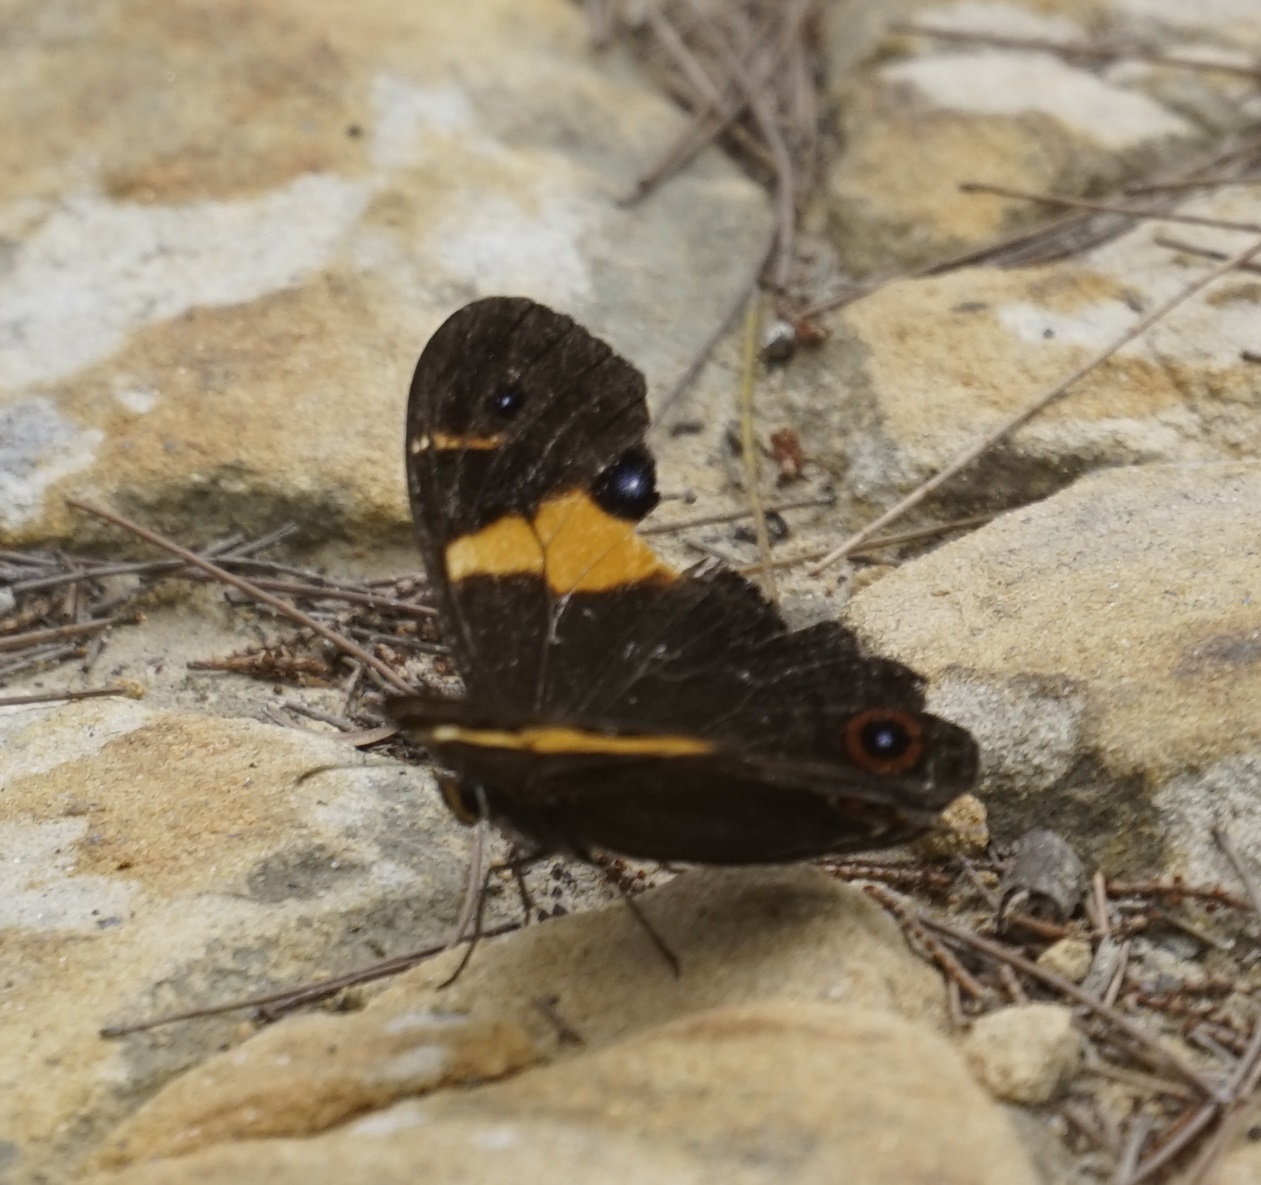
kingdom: Animalia
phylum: Arthropoda
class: Insecta
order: Lepidoptera
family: Nymphalidae
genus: Tisiphone
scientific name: Tisiphone abeona
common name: Swordgrass brown
